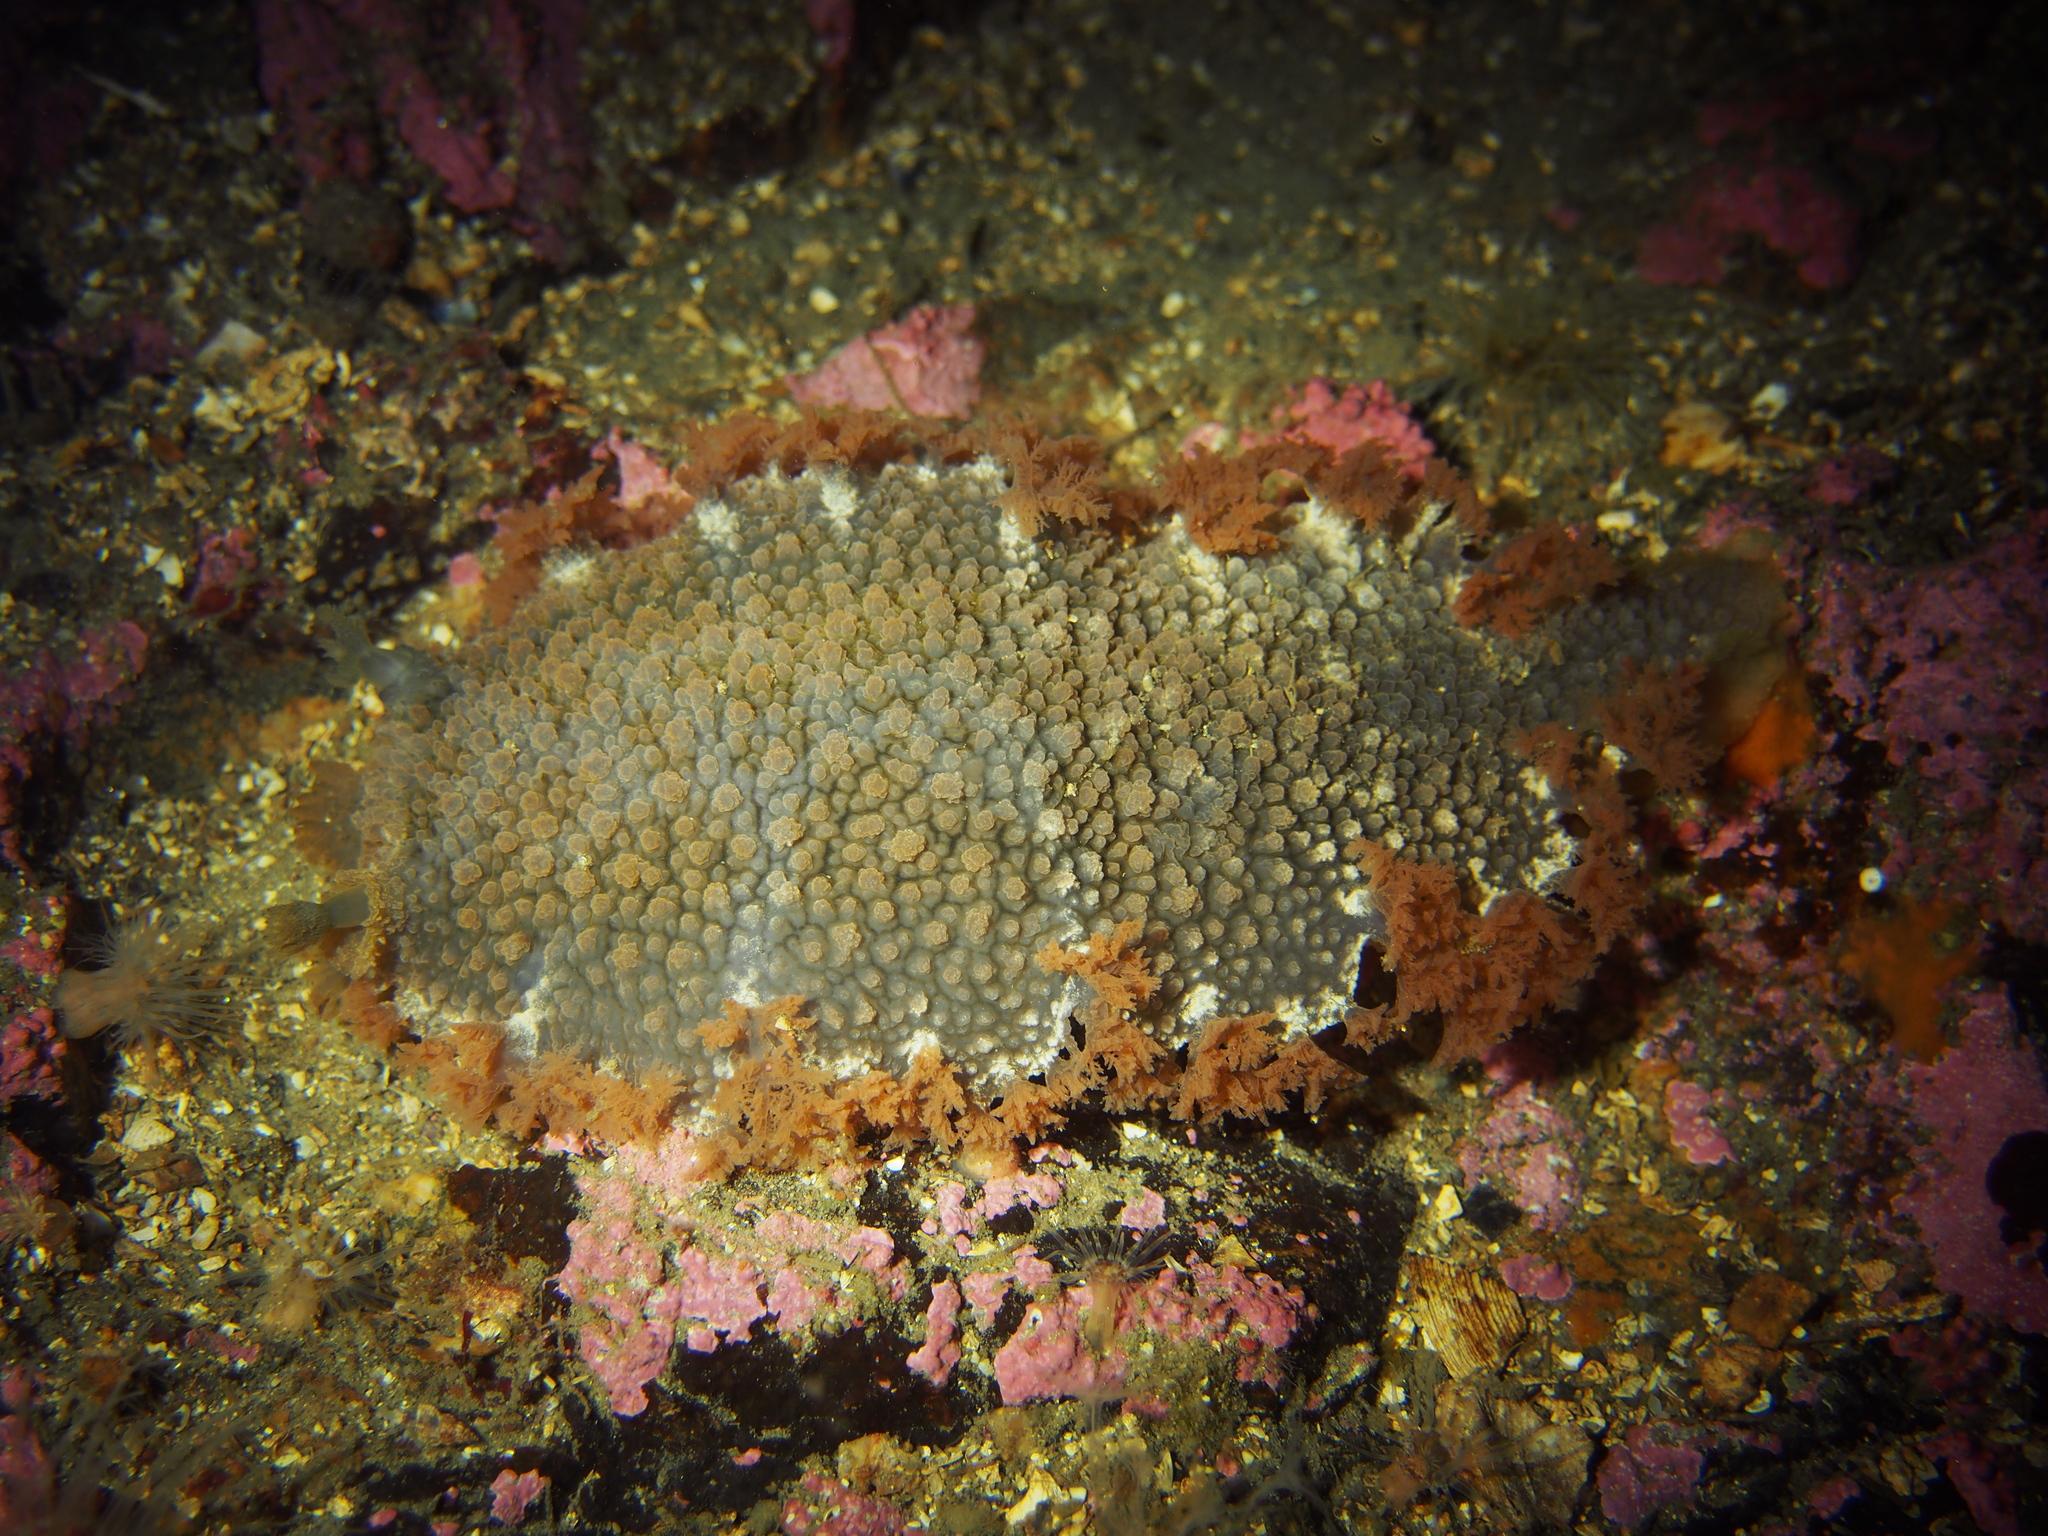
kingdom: Animalia
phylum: Mollusca
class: Gastropoda
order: Nudibranchia
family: Tritoniidae
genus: Tritonia
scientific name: Tritonia hombergii
